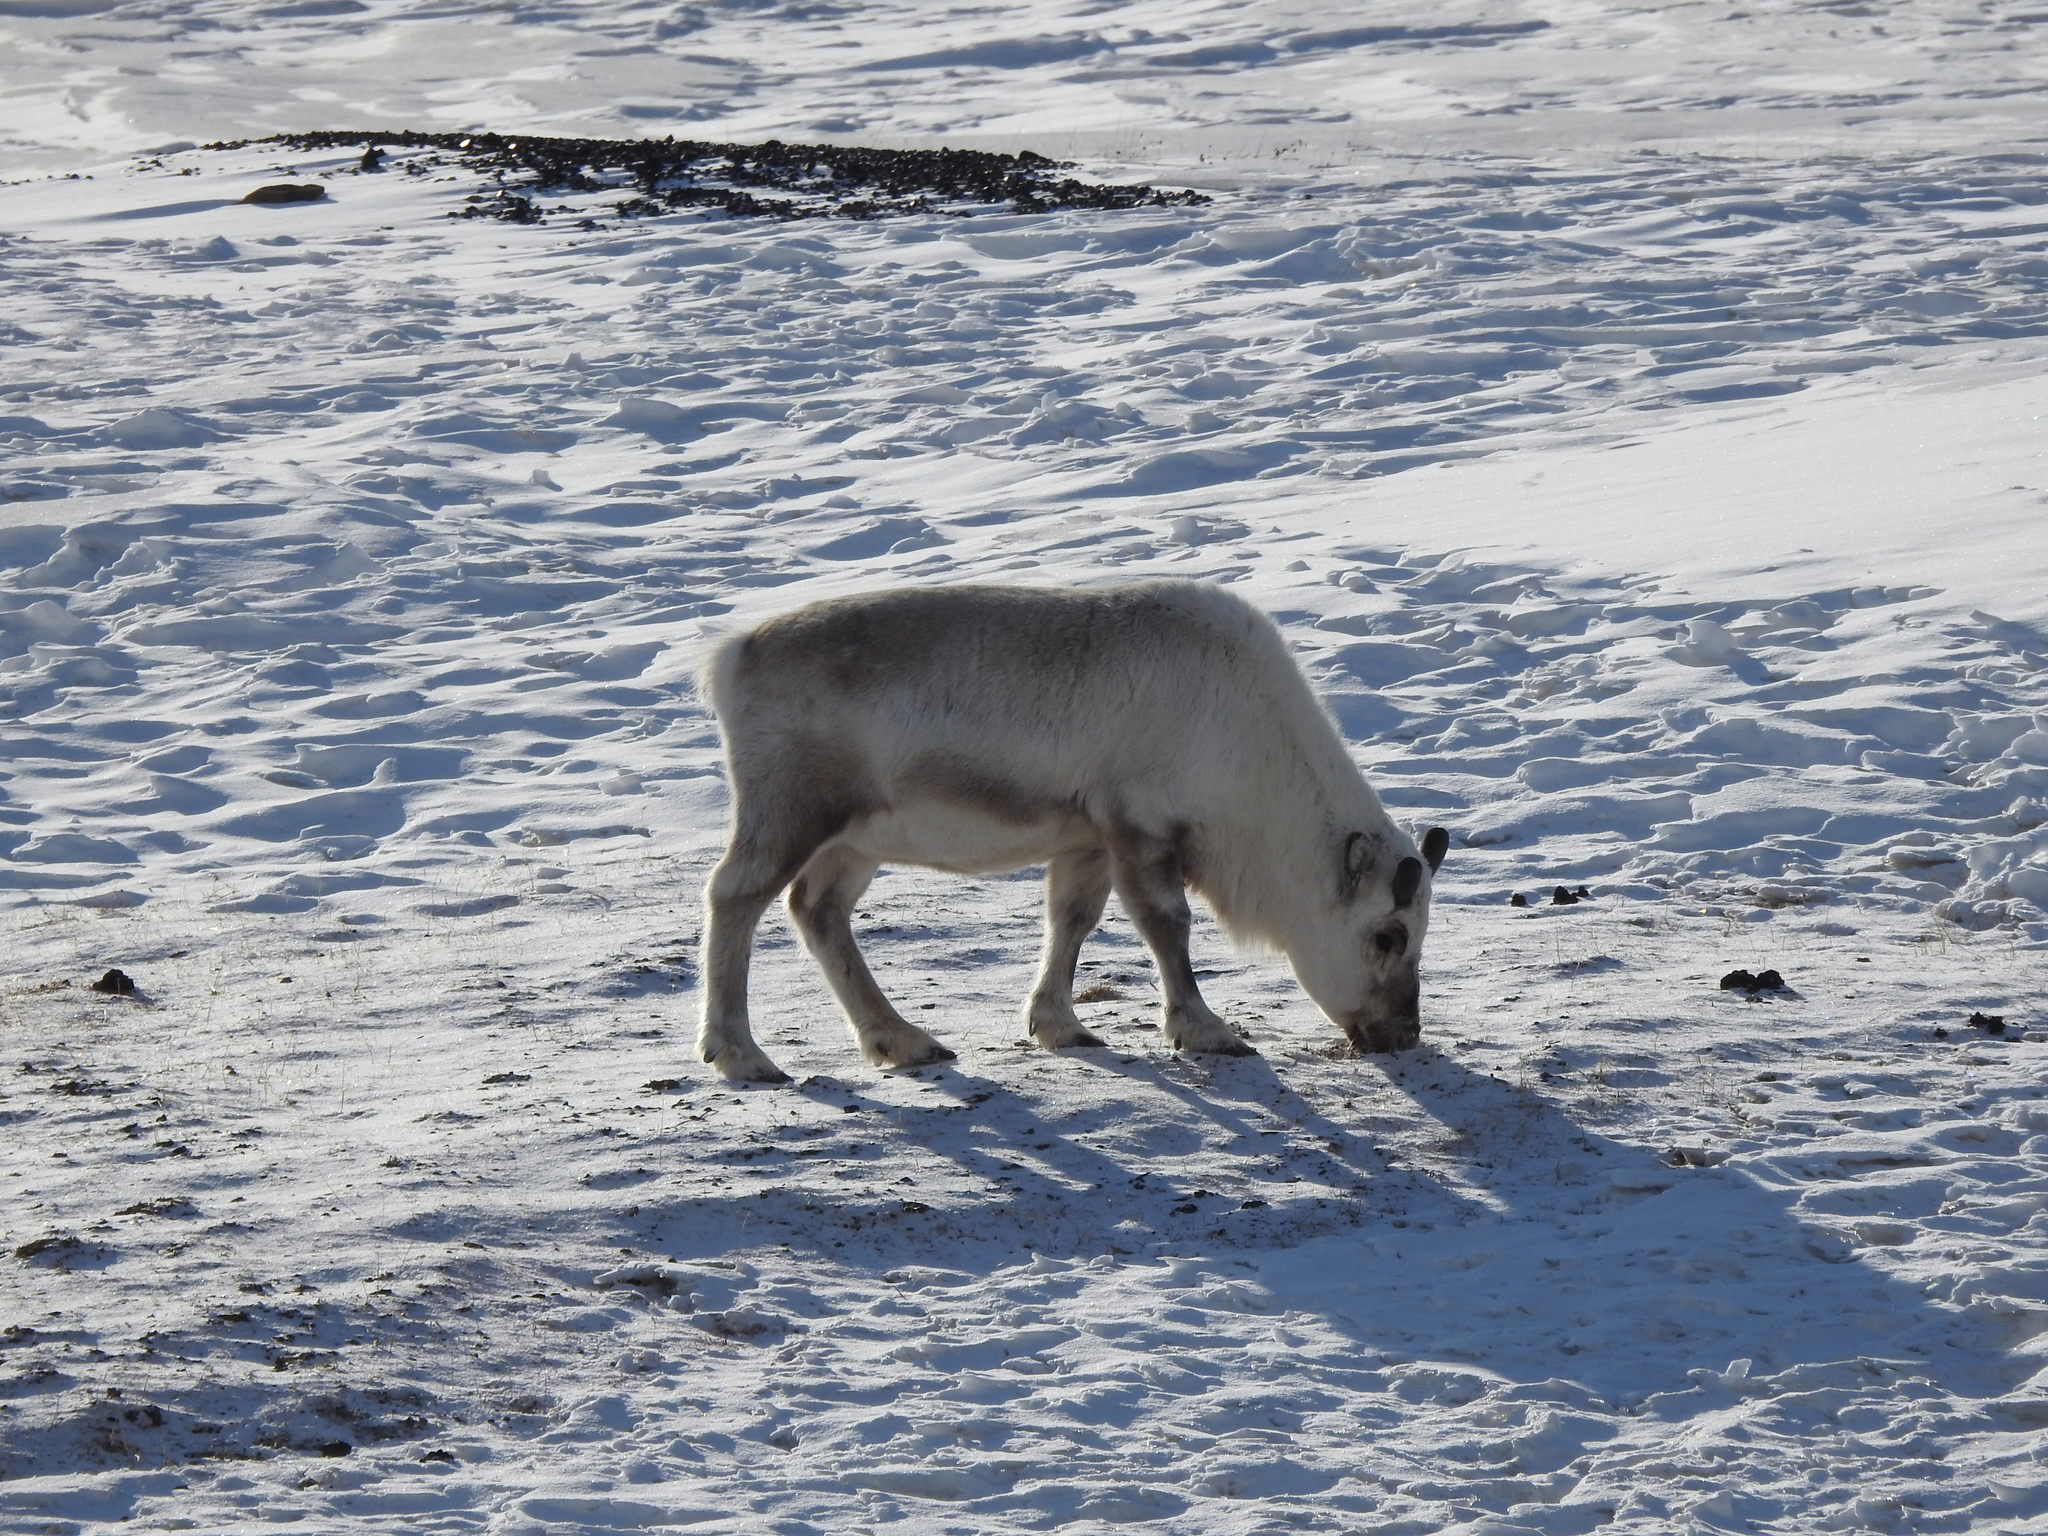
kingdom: Animalia
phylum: Chordata
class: Mammalia
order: Artiodactyla
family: Cervidae
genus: Rangifer
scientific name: Rangifer tarandus
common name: Reindeer
